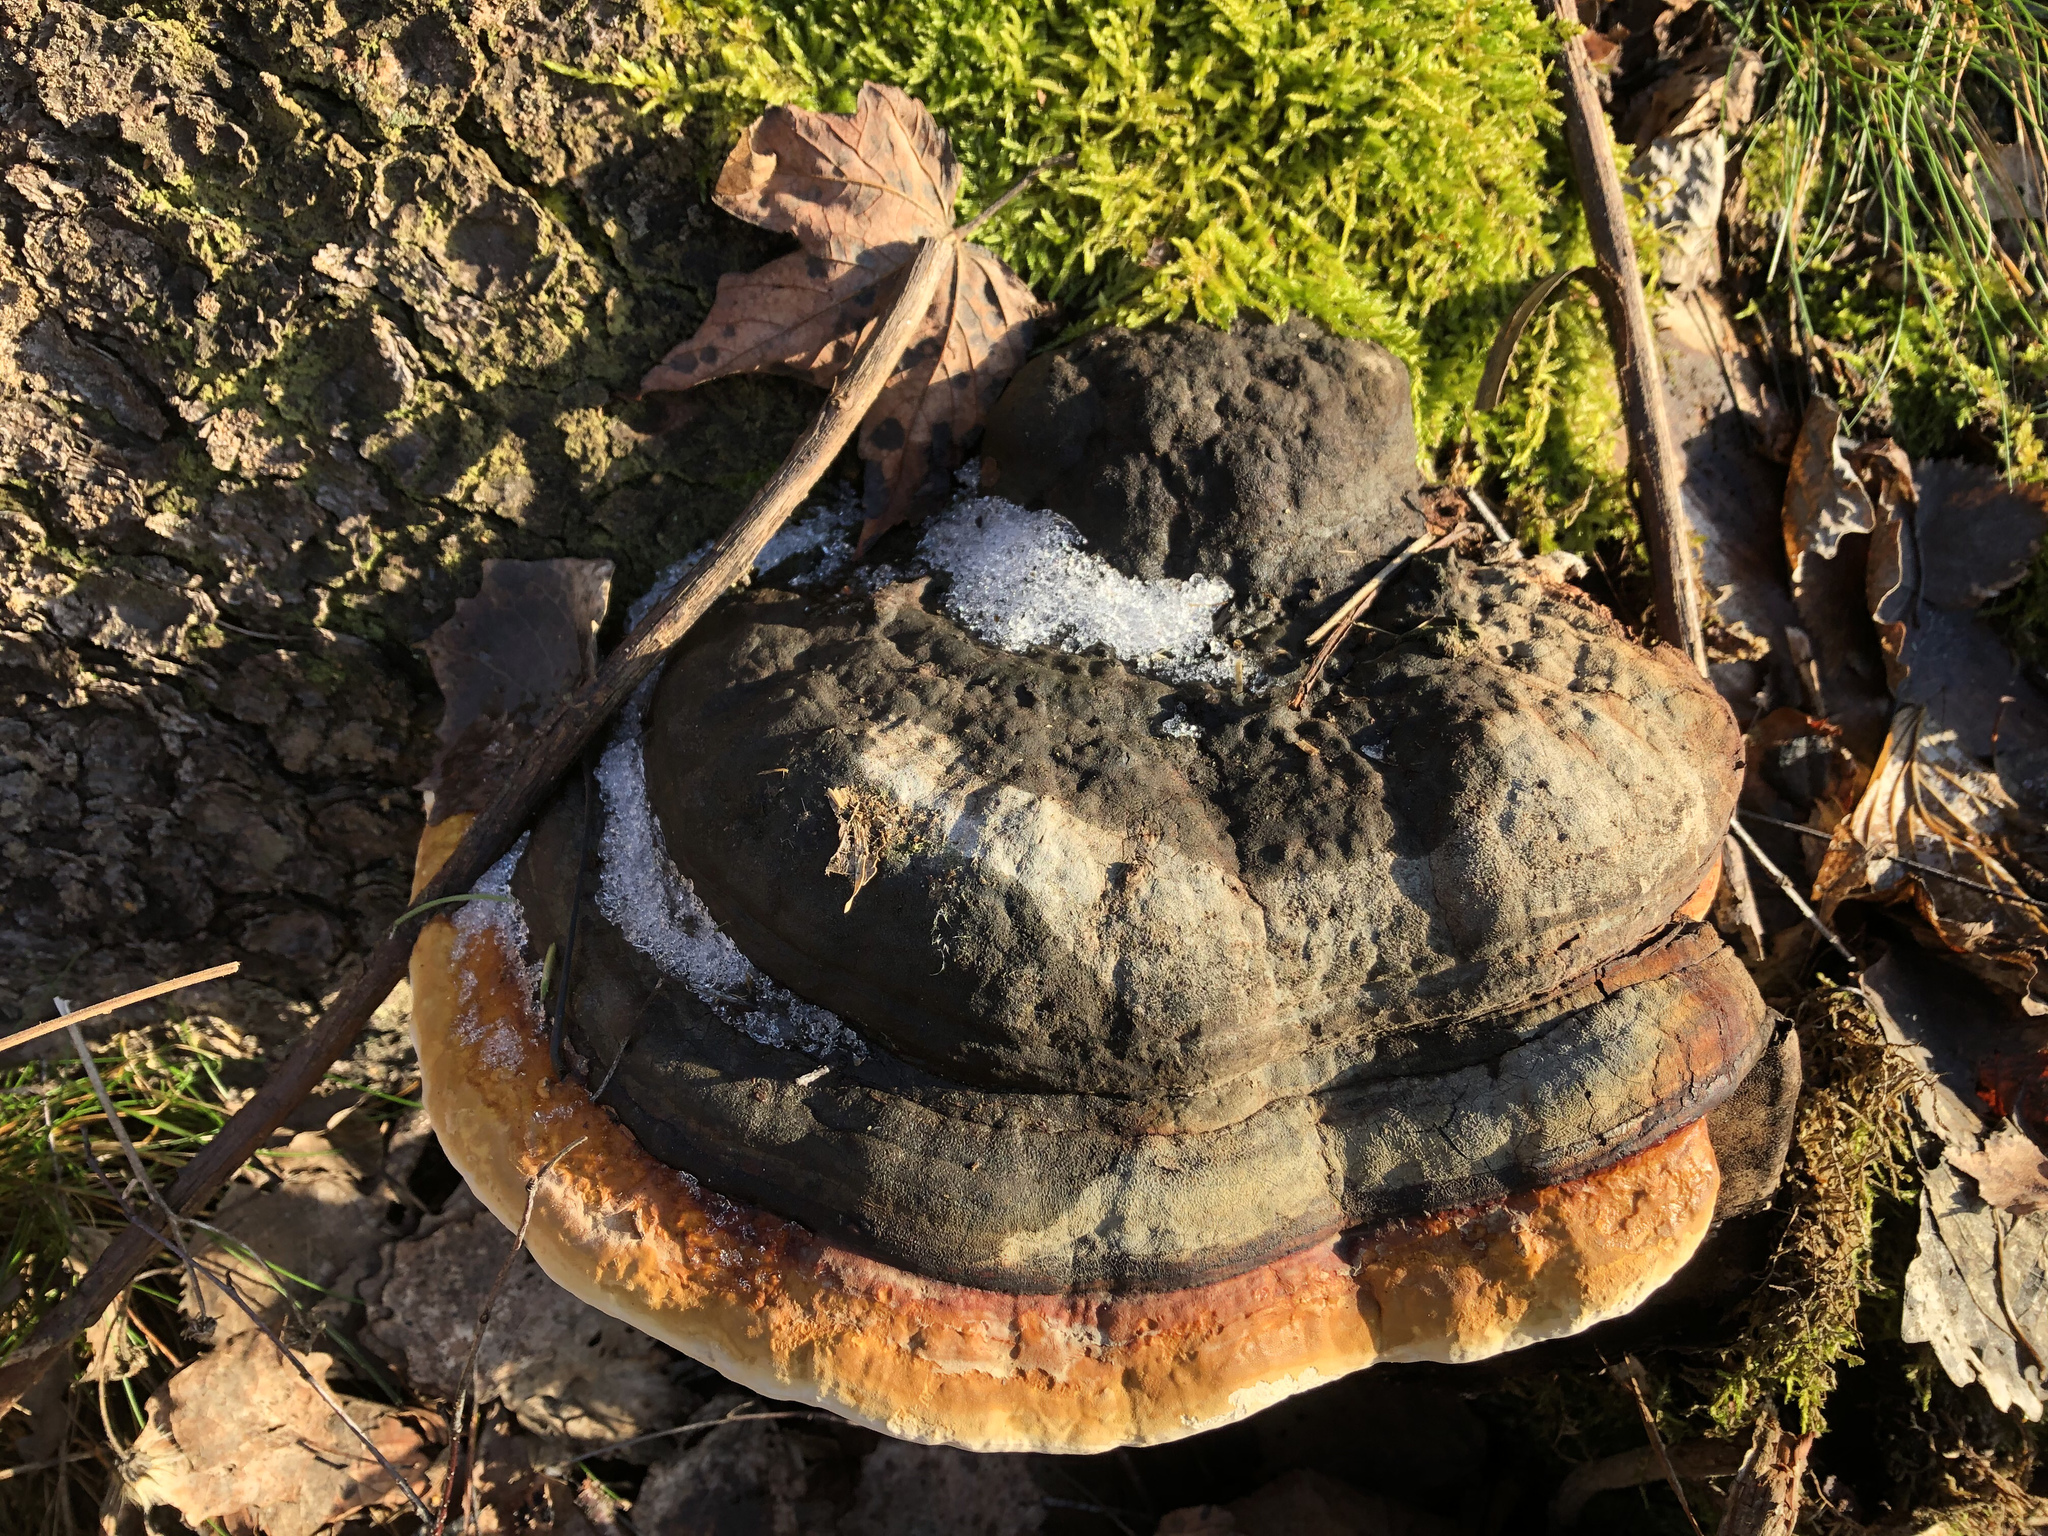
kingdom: Fungi
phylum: Basidiomycota
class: Agaricomycetes
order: Polyporales
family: Fomitopsidaceae
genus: Fomitopsis
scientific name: Fomitopsis pinicola
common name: Red-belted bracket
